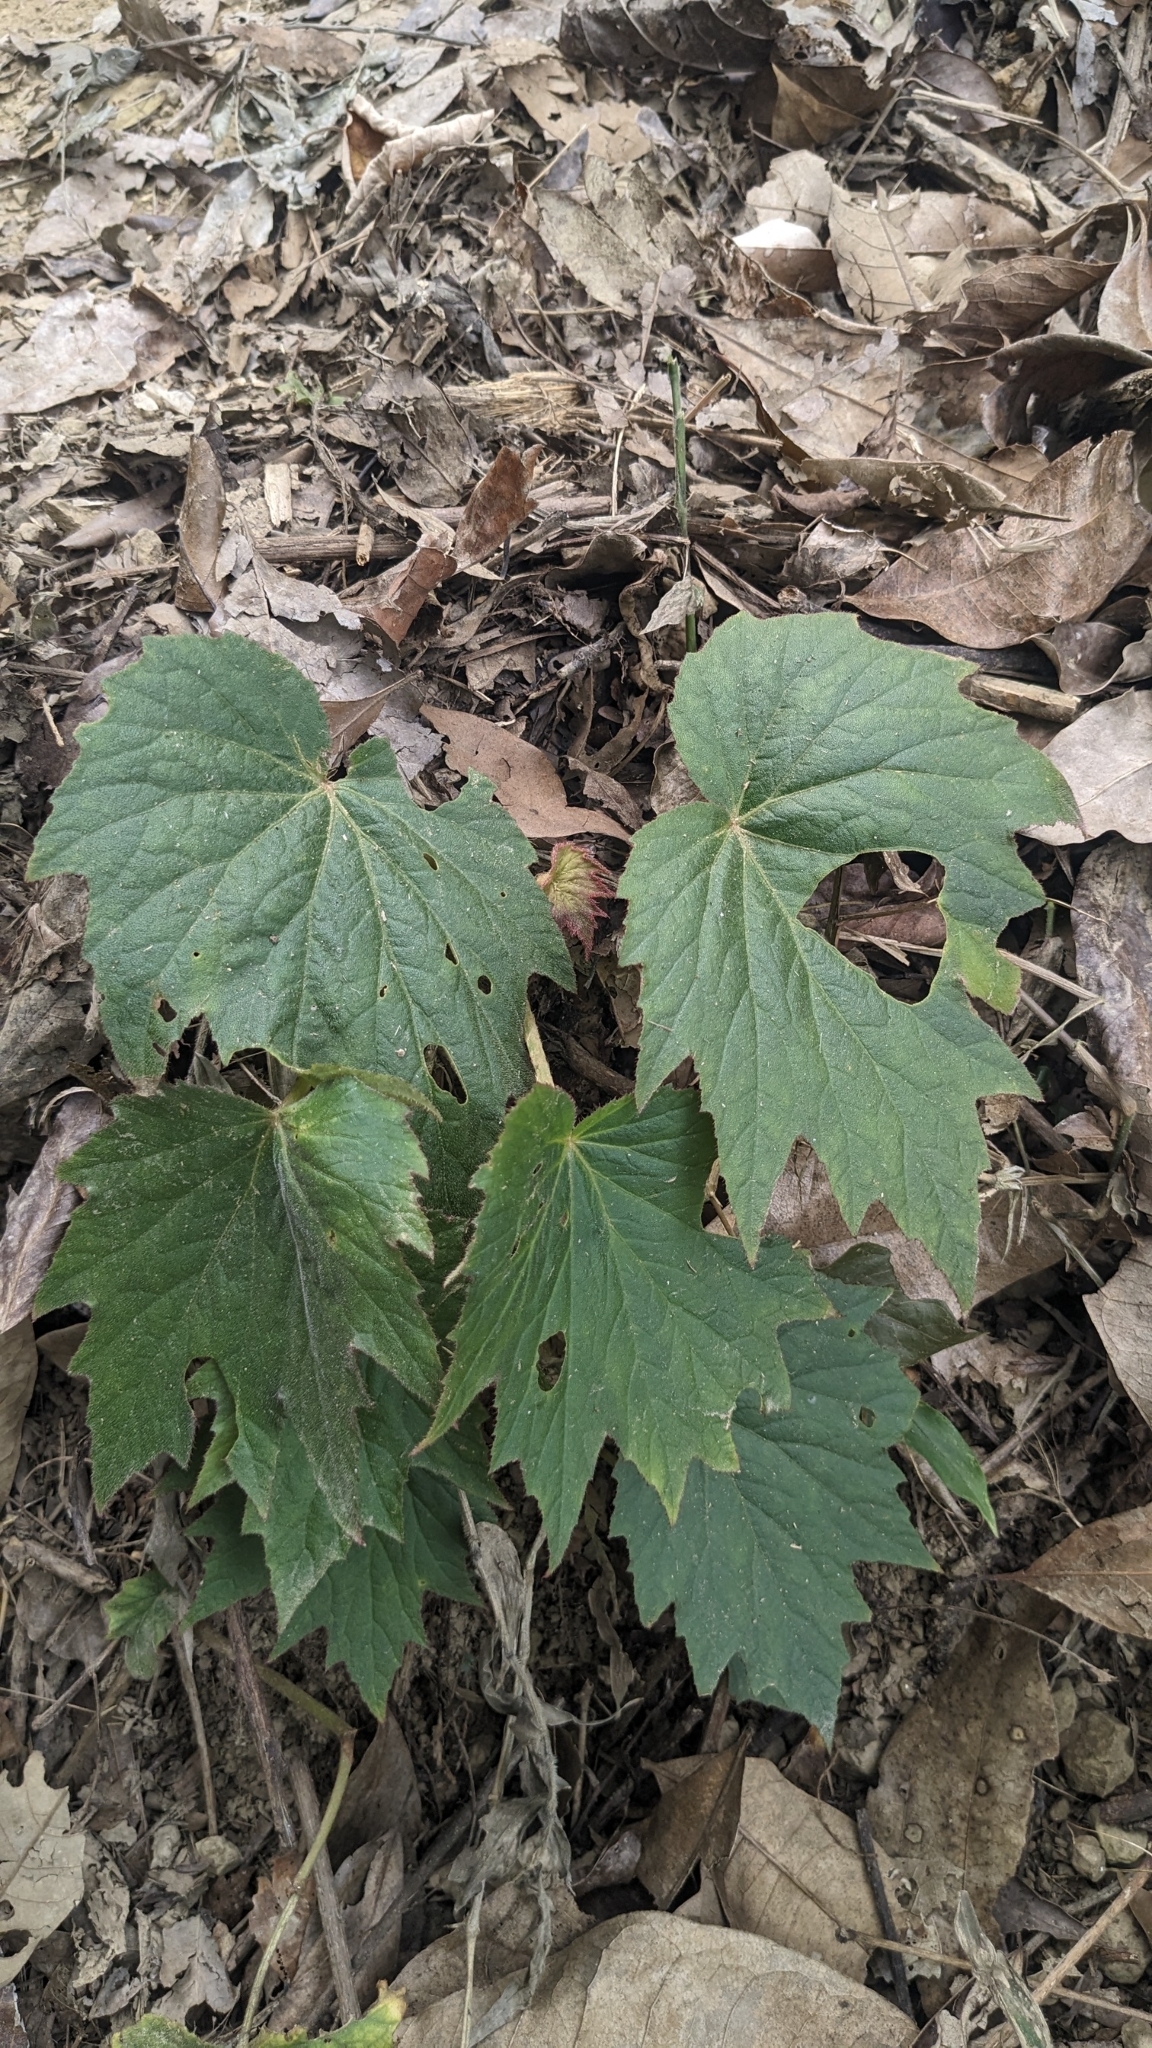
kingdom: Plantae
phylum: Tracheophyta
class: Magnoliopsida
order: Cucurbitales
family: Begoniaceae
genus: Begonia
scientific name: Begonia palmata
